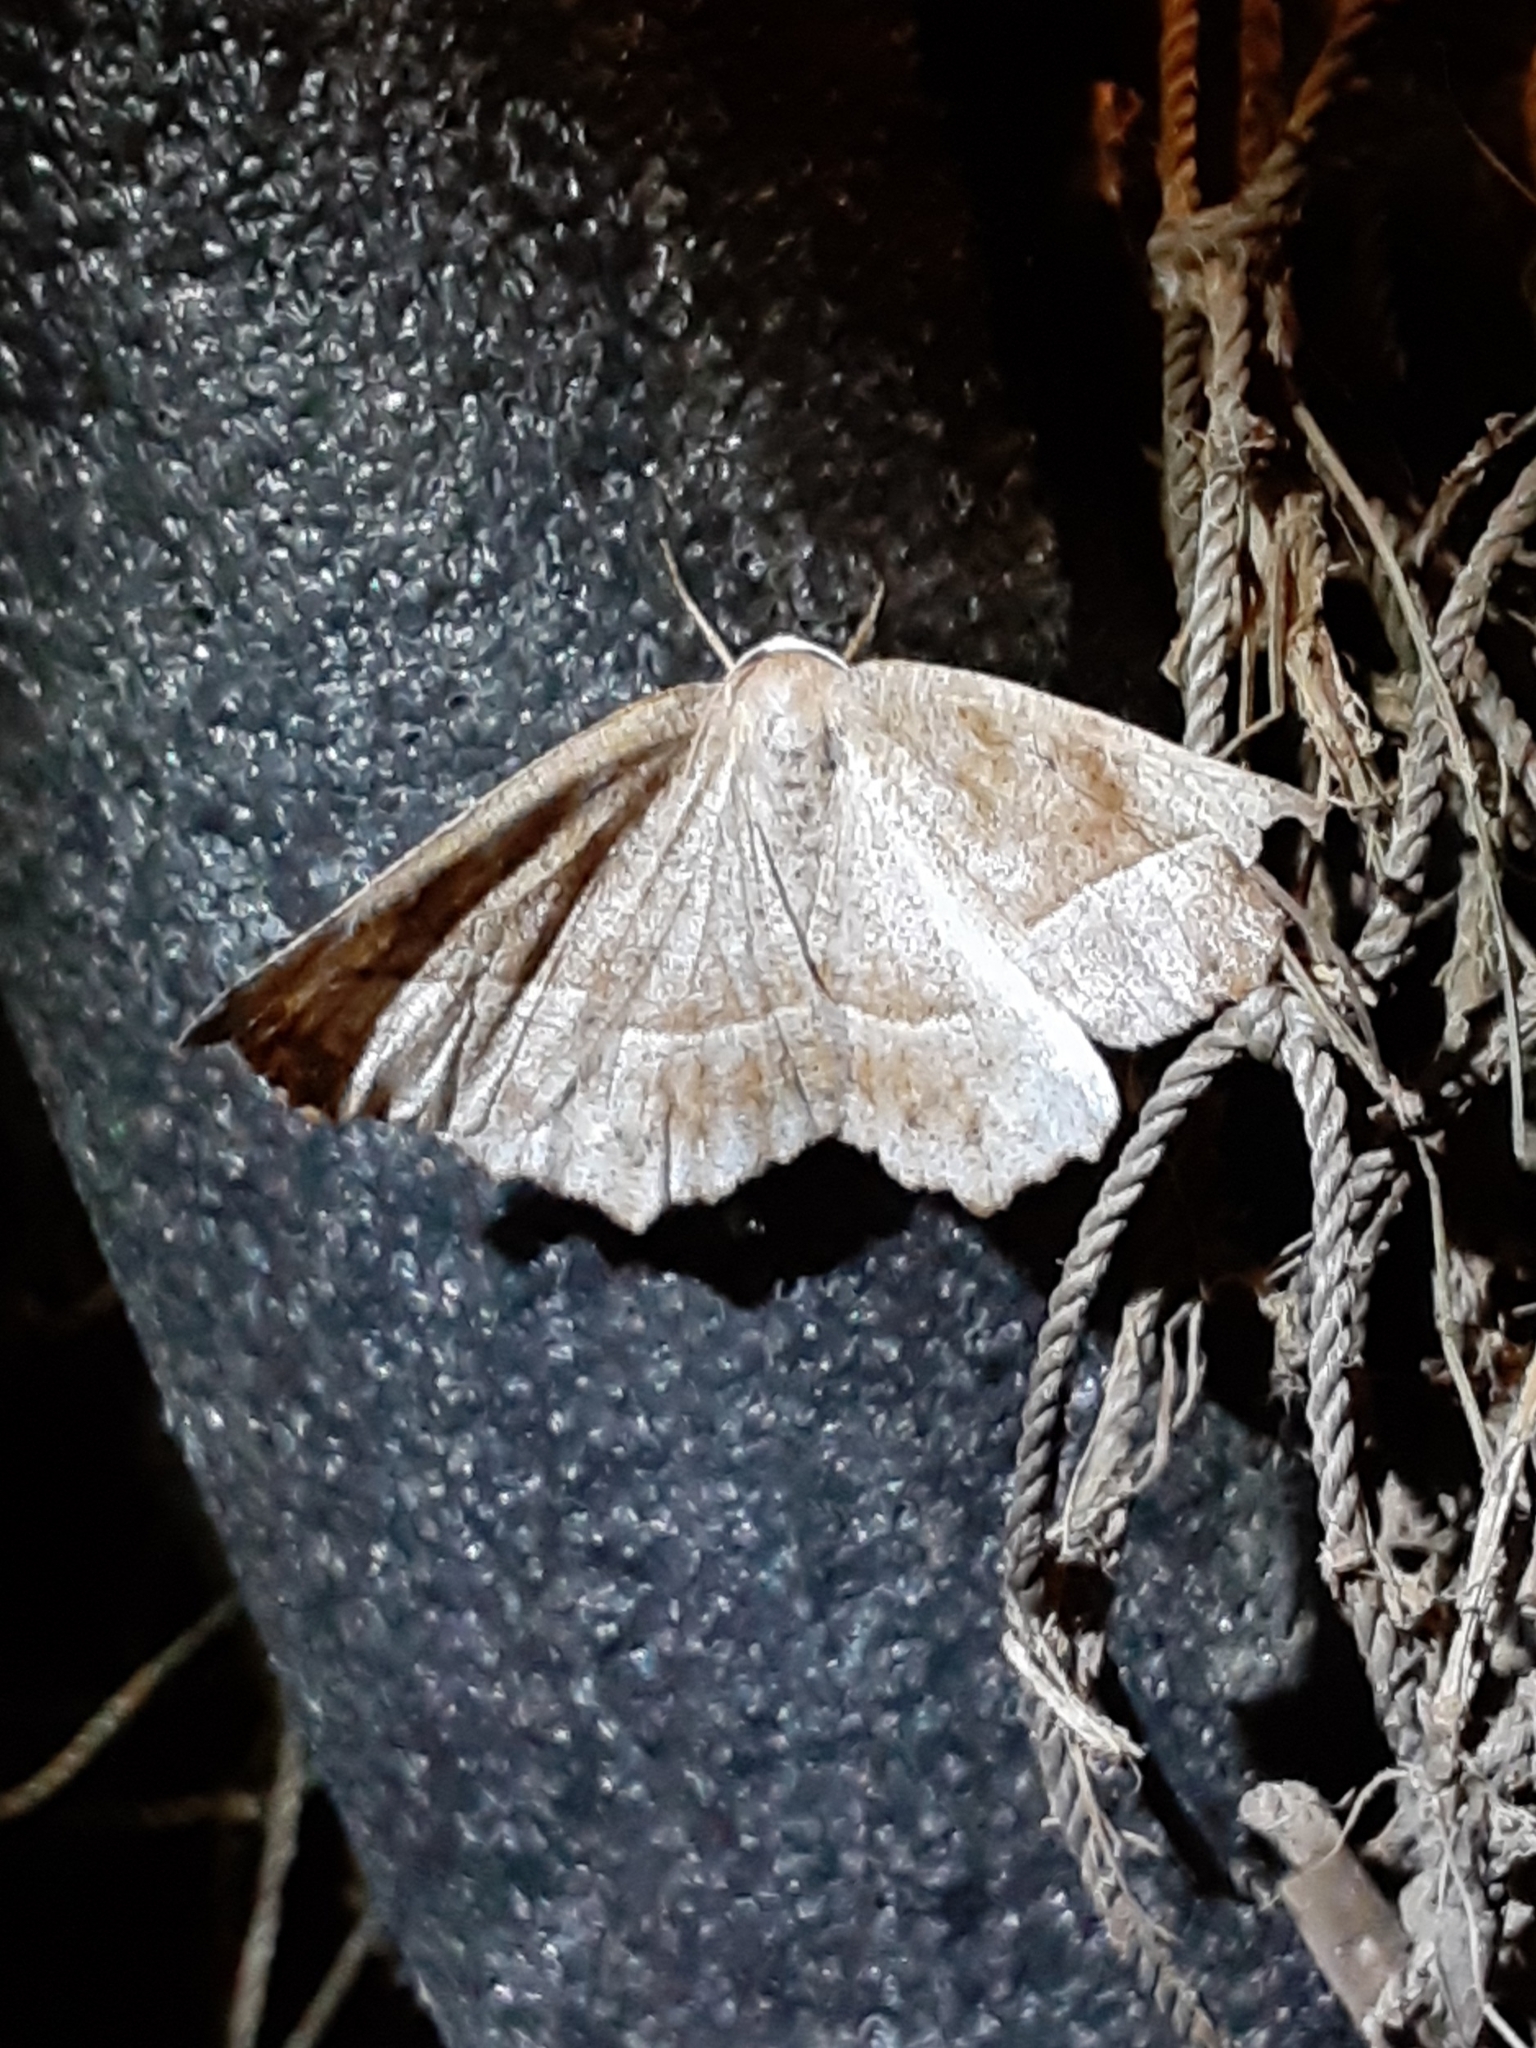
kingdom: Animalia
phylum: Arthropoda
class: Insecta
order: Lepidoptera
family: Geometridae
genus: Eutrapela
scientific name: Eutrapela clemataria
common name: Curved-toothed geometer
